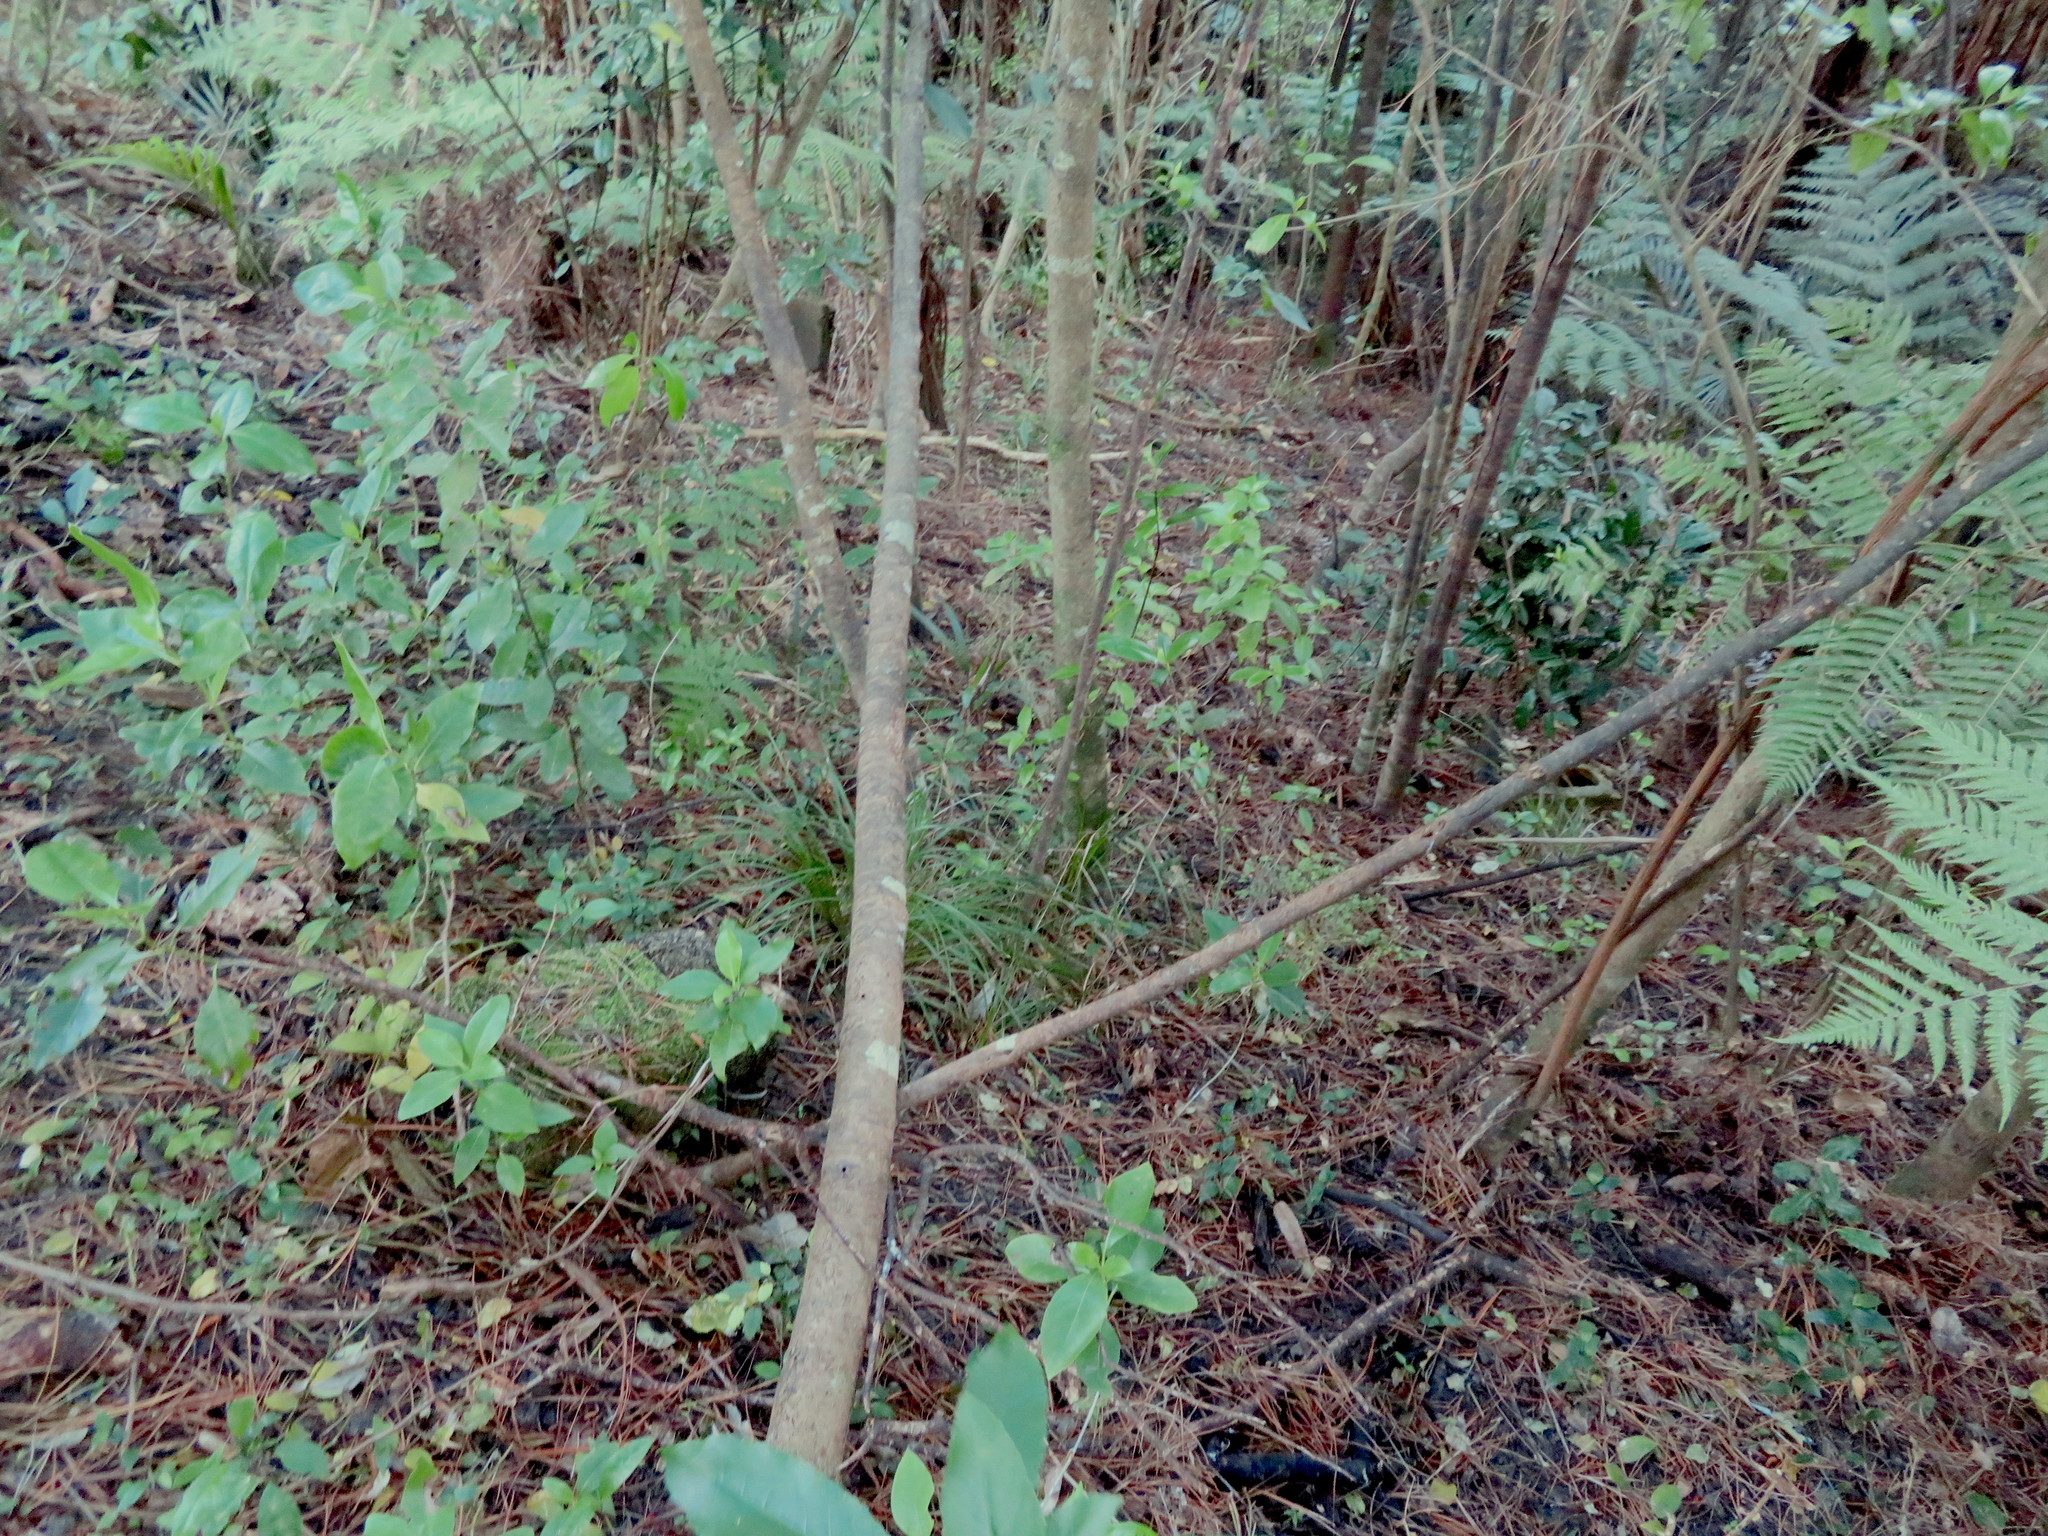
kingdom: Plantae
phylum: Tracheophyta
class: Magnoliopsida
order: Laurales
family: Monimiaceae
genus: Hedycarya
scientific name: Hedycarya arborea
